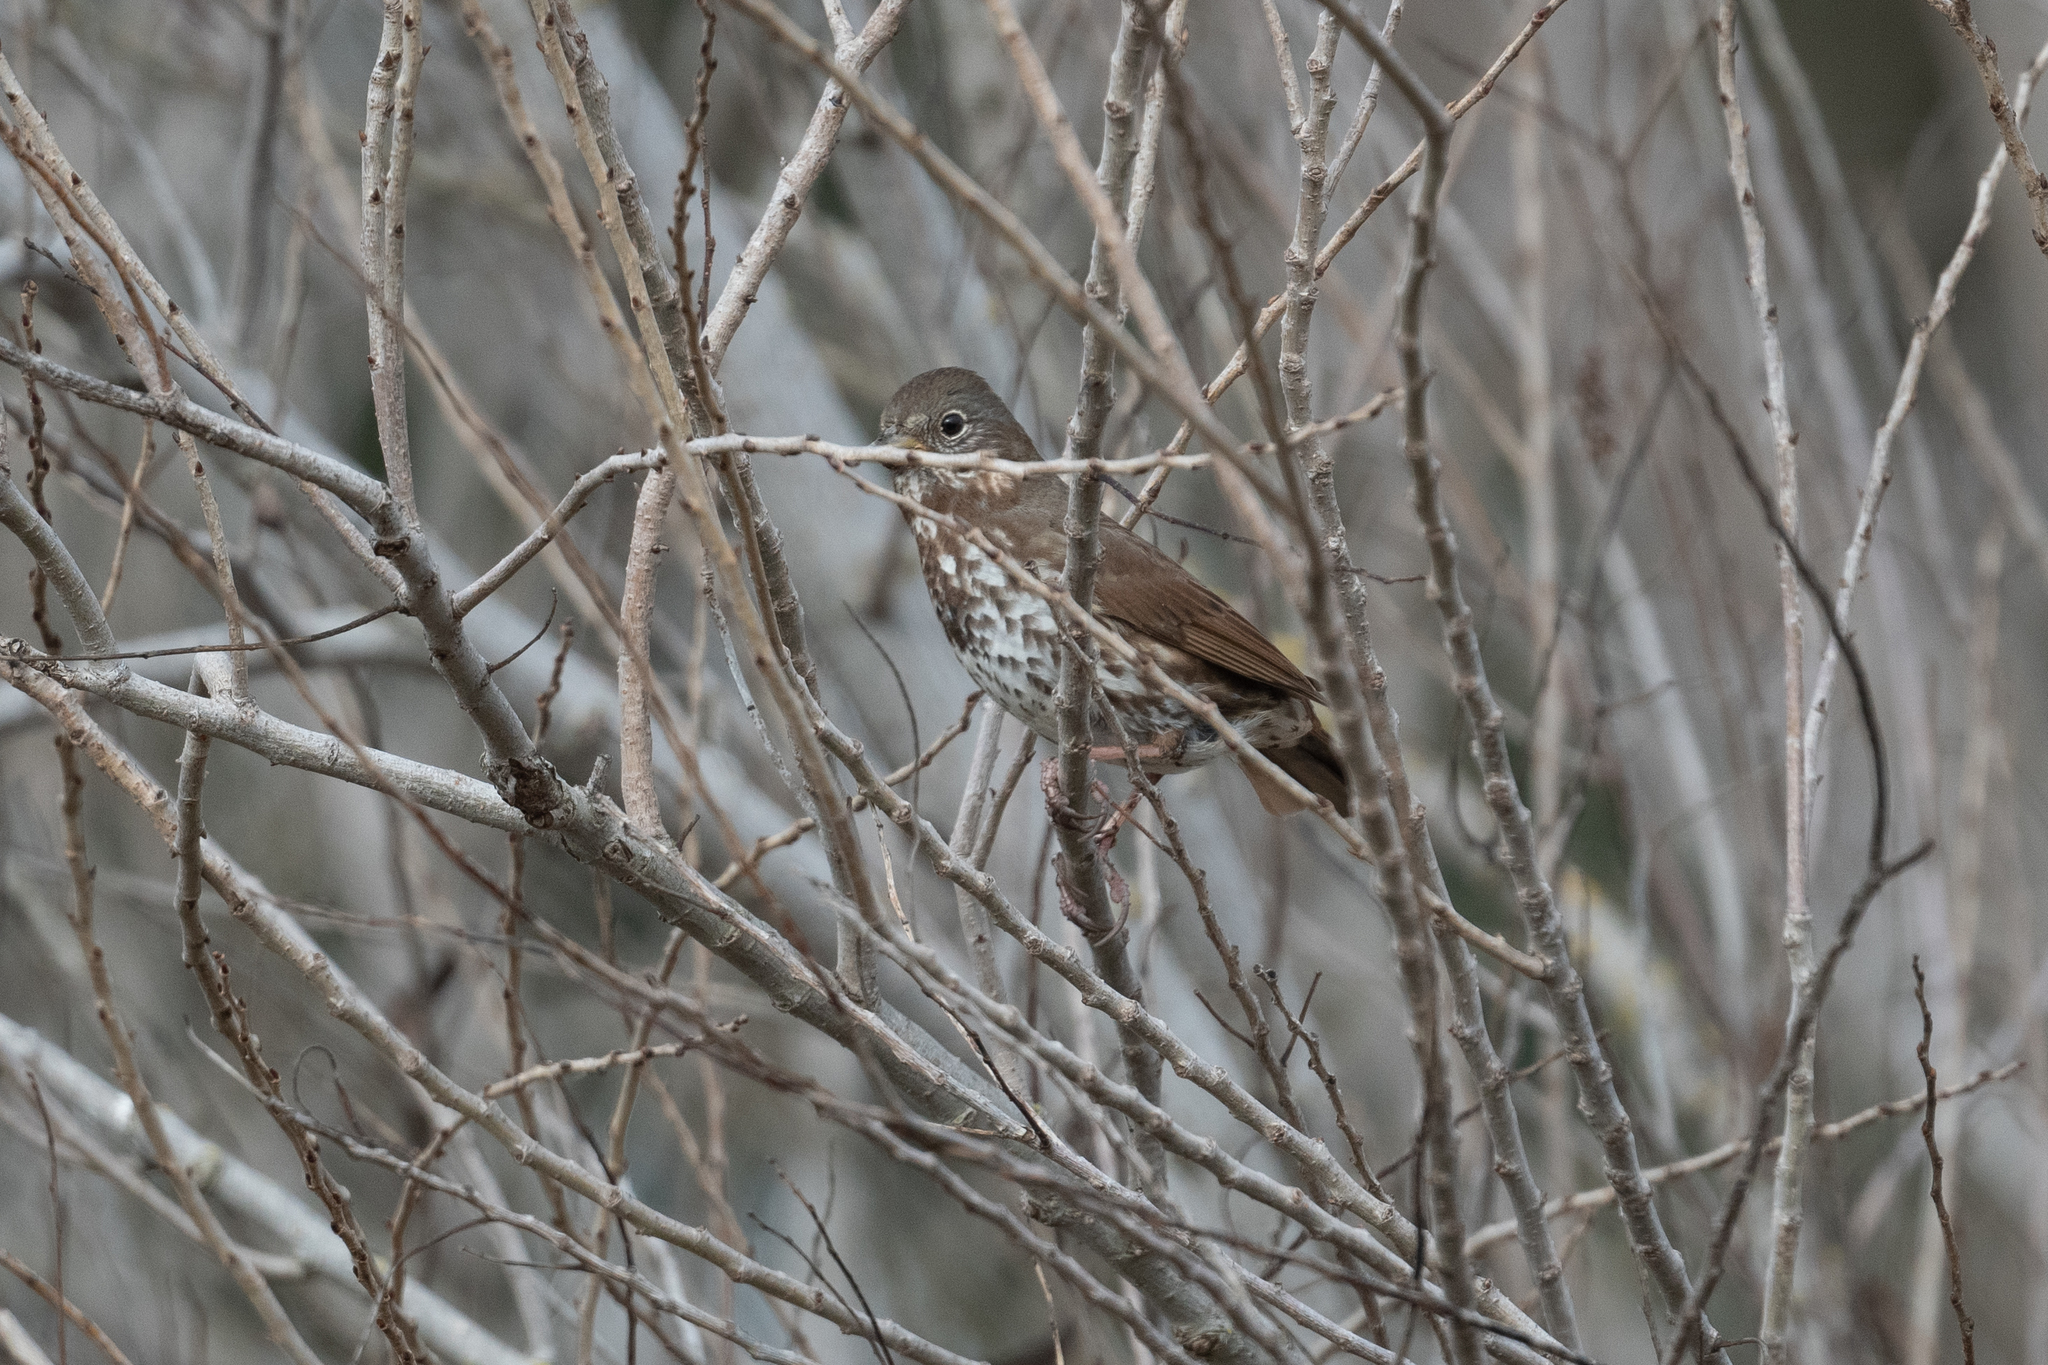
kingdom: Animalia
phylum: Chordata
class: Aves
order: Passeriformes
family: Passerellidae
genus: Passerella
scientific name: Passerella iliaca
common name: Fox sparrow
